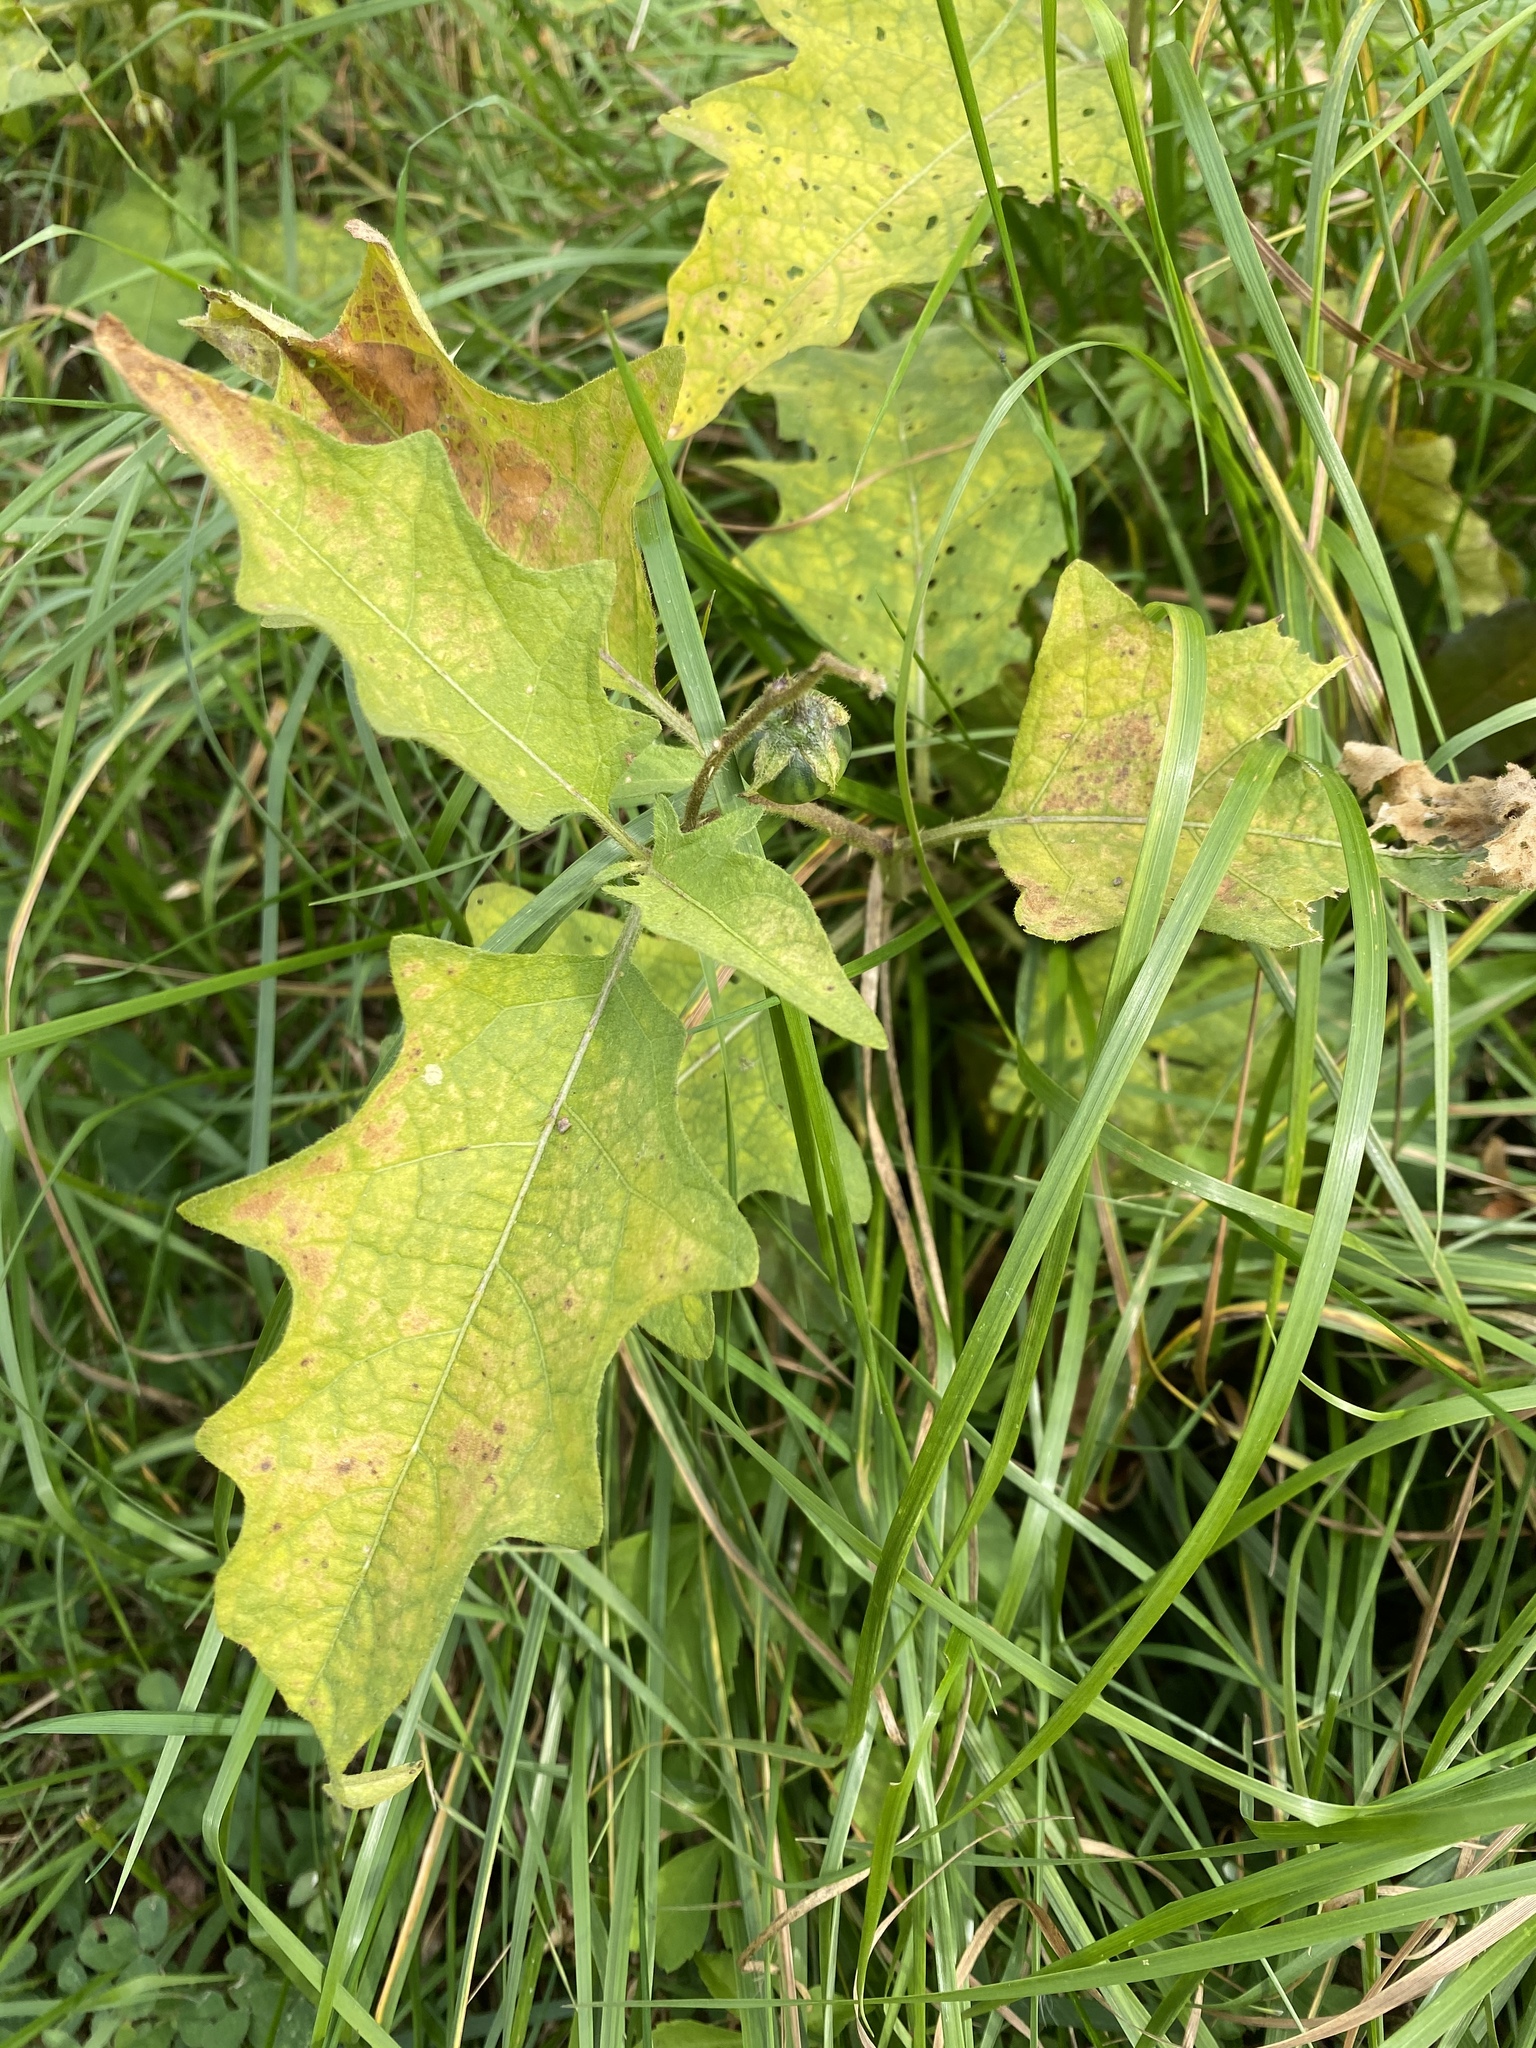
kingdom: Plantae
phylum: Tracheophyta
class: Magnoliopsida
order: Solanales
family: Solanaceae
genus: Solanum
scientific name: Solanum carolinense
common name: Horse-nettle
